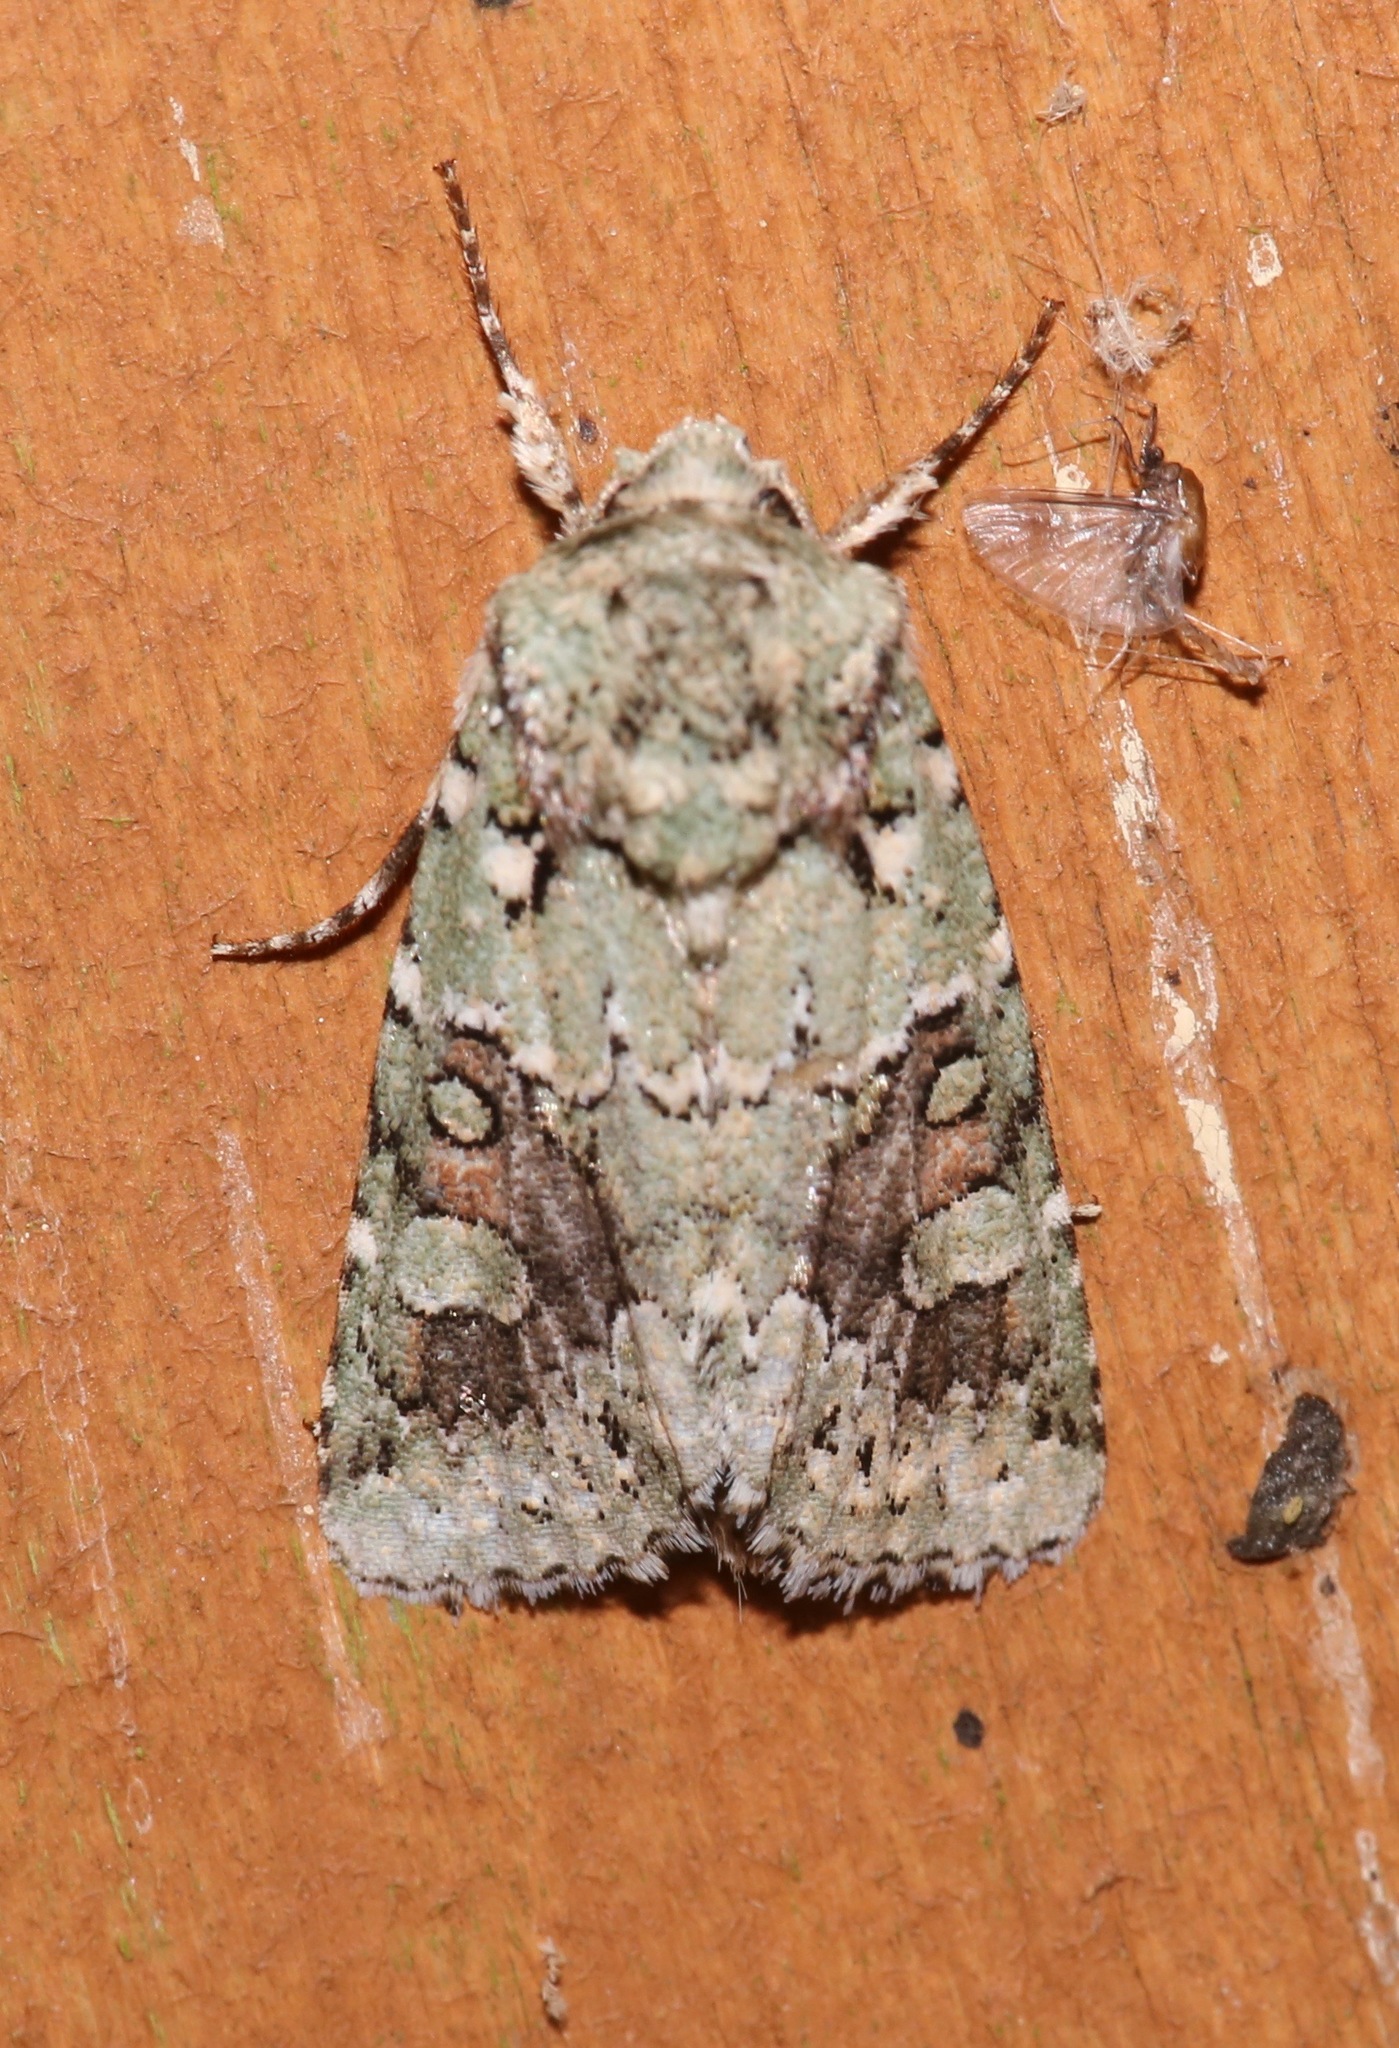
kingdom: Animalia
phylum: Arthropoda
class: Insecta
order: Lepidoptera
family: Noctuidae
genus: Lacinipolia
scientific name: Lacinipolia laudabilis
